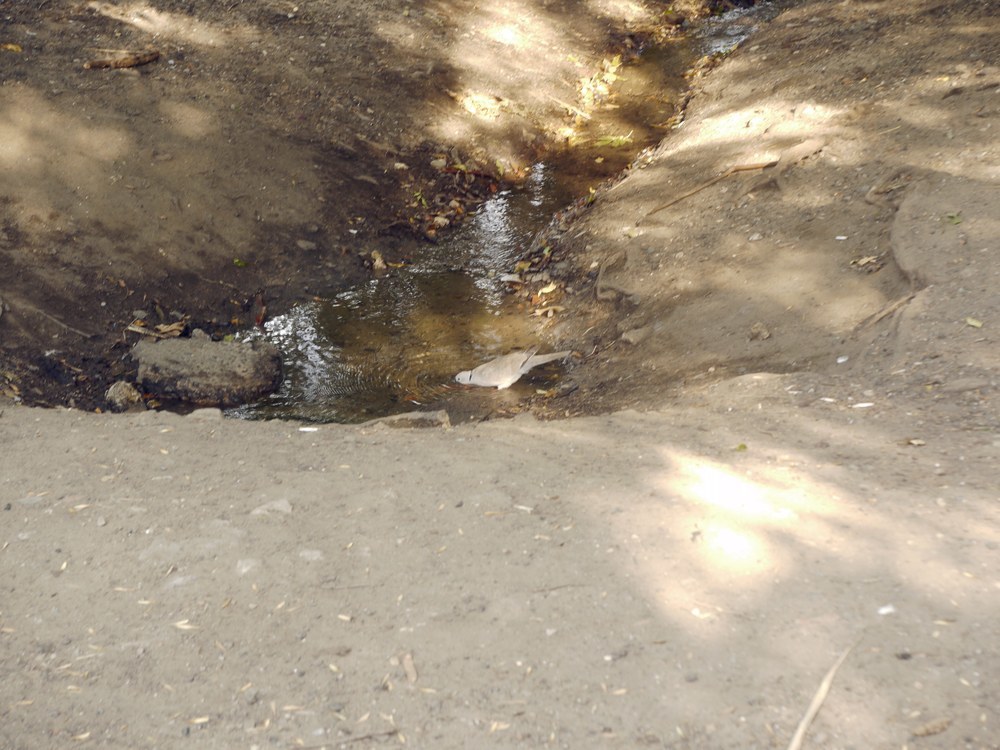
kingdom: Animalia
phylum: Chordata
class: Aves
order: Columbiformes
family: Columbidae
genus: Streptopelia
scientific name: Streptopelia decaocto
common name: Eurasian collared dove
